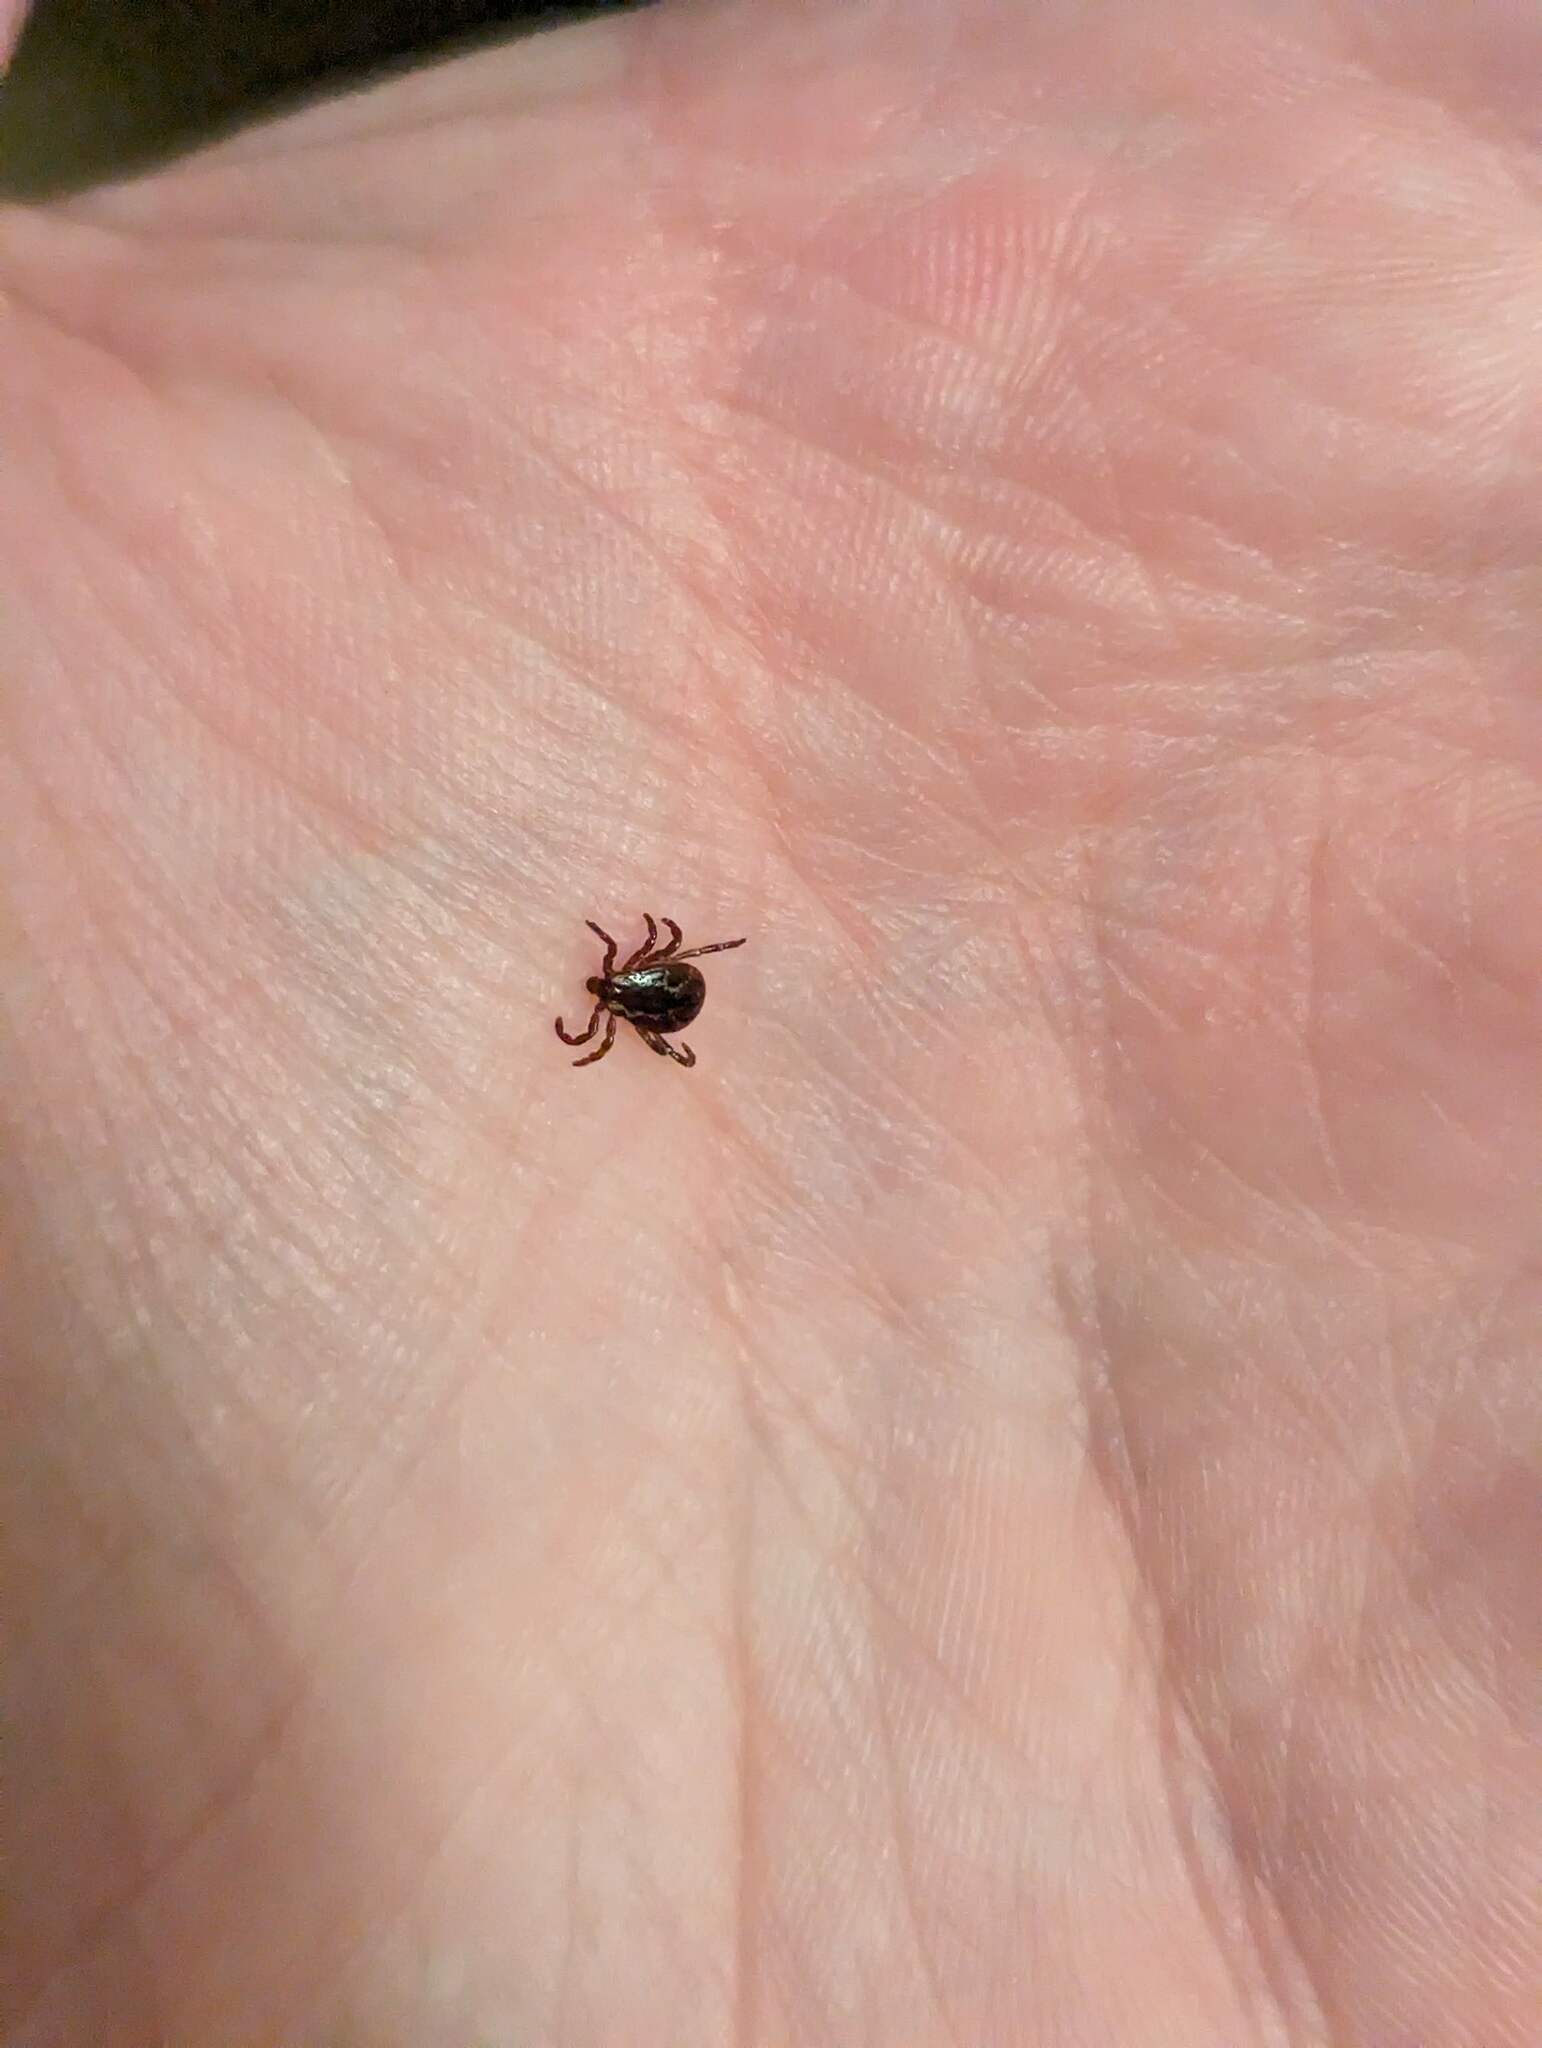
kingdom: Animalia
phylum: Arthropoda
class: Arachnida
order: Ixodida
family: Ixodidae
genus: Dermacentor
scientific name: Dermacentor variabilis
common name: American dog tick
